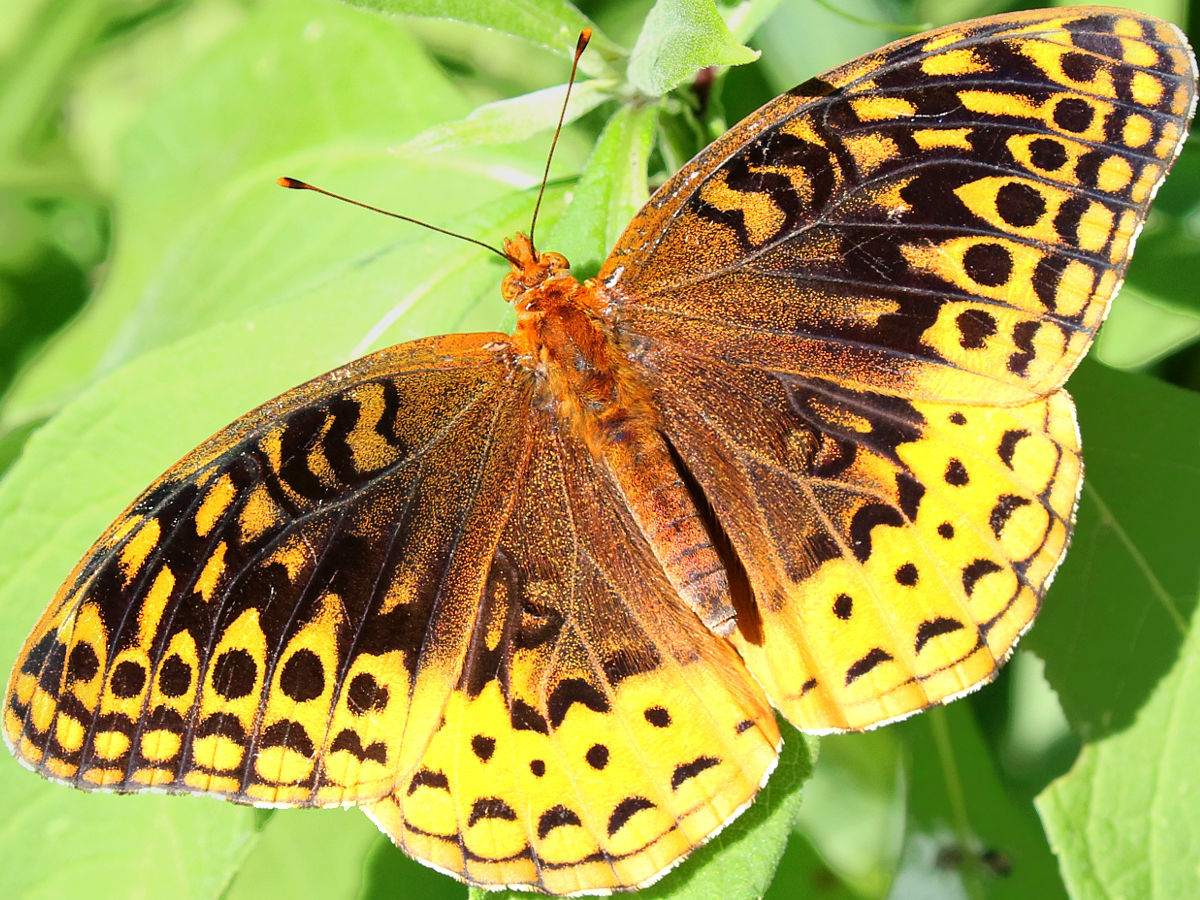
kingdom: Animalia
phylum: Arthropoda
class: Insecta
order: Lepidoptera
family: Nymphalidae
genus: Speyeria
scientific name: Speyeria cybele
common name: Great spangled fritillary
